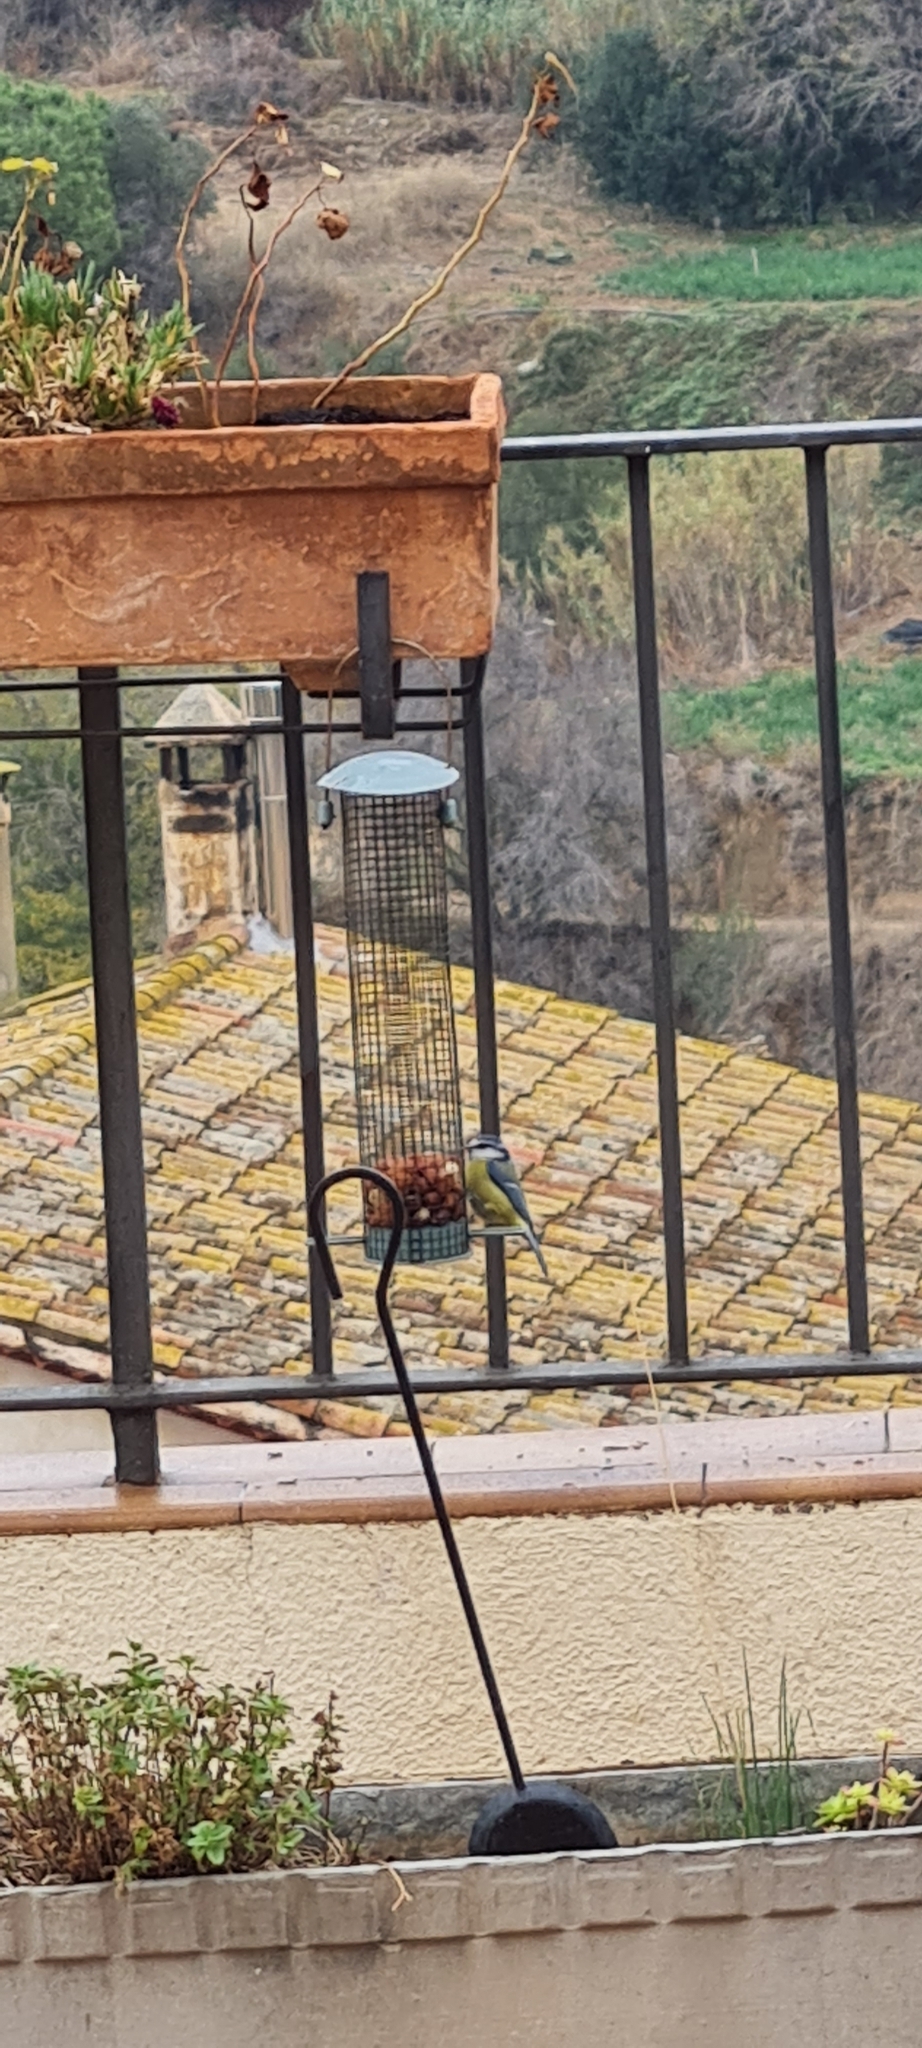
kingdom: Animalia
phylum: Chordata
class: Aves
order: Passeriformes
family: Paridae
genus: Cyanistes
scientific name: Cyanistes caeruleus
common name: Eurasian blue tit
